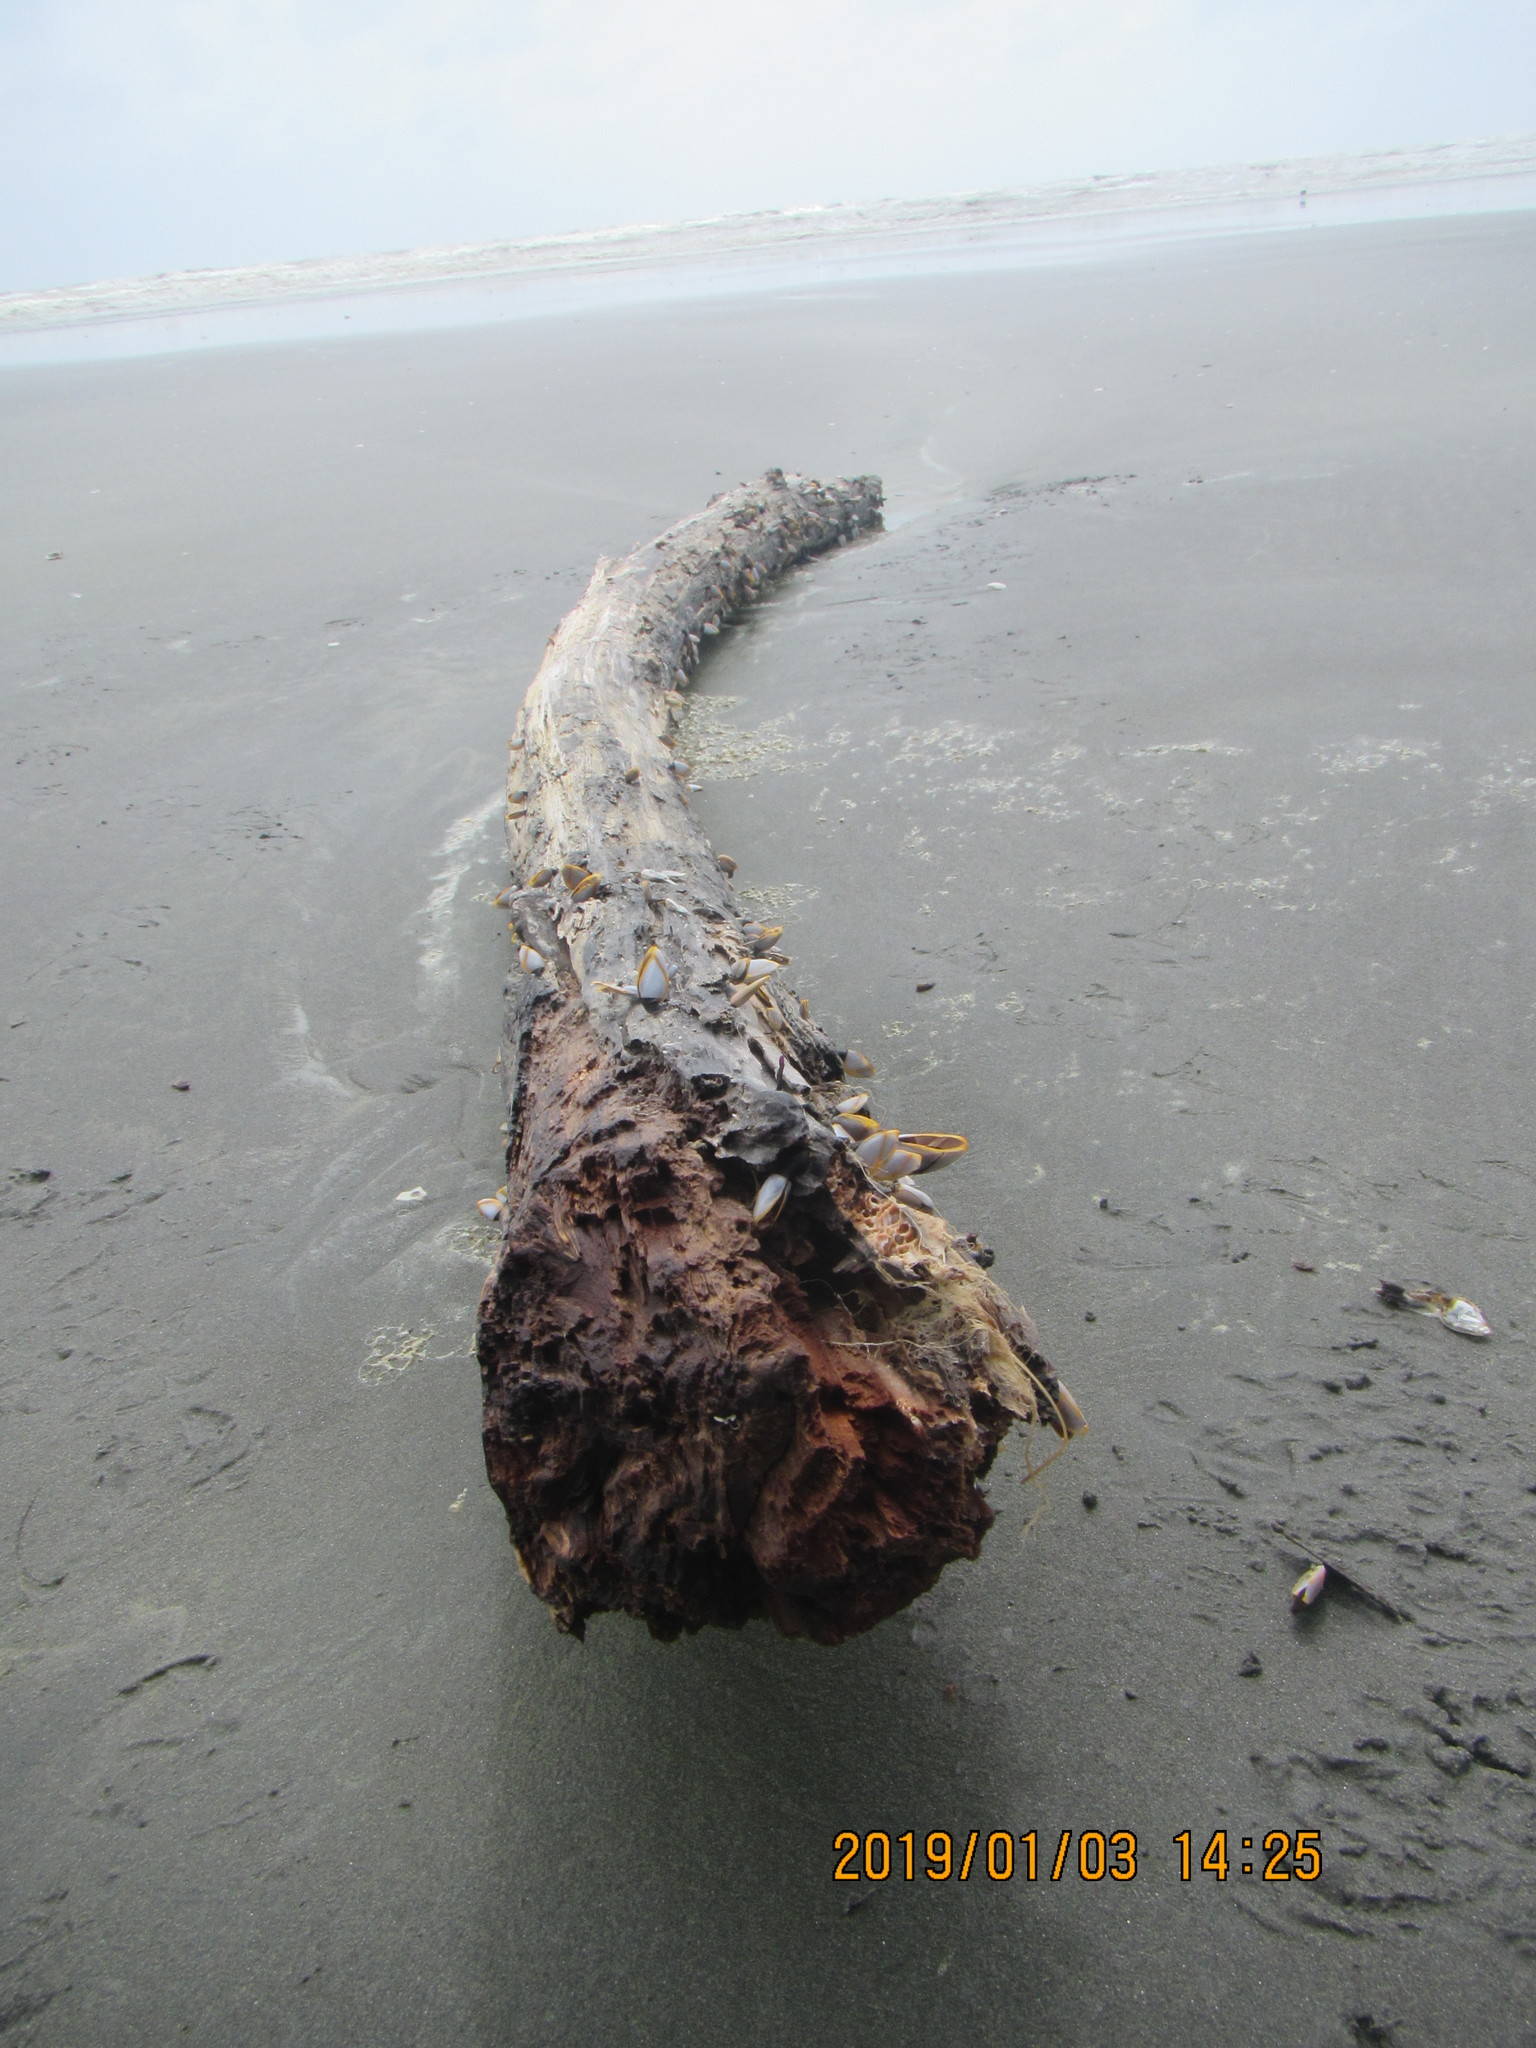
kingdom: Animalia
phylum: Arthropoda
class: Maxillopoda
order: Pedunculata
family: Lepadidae
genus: Lepas
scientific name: Lepas anatifera
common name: Common goose barnacle
